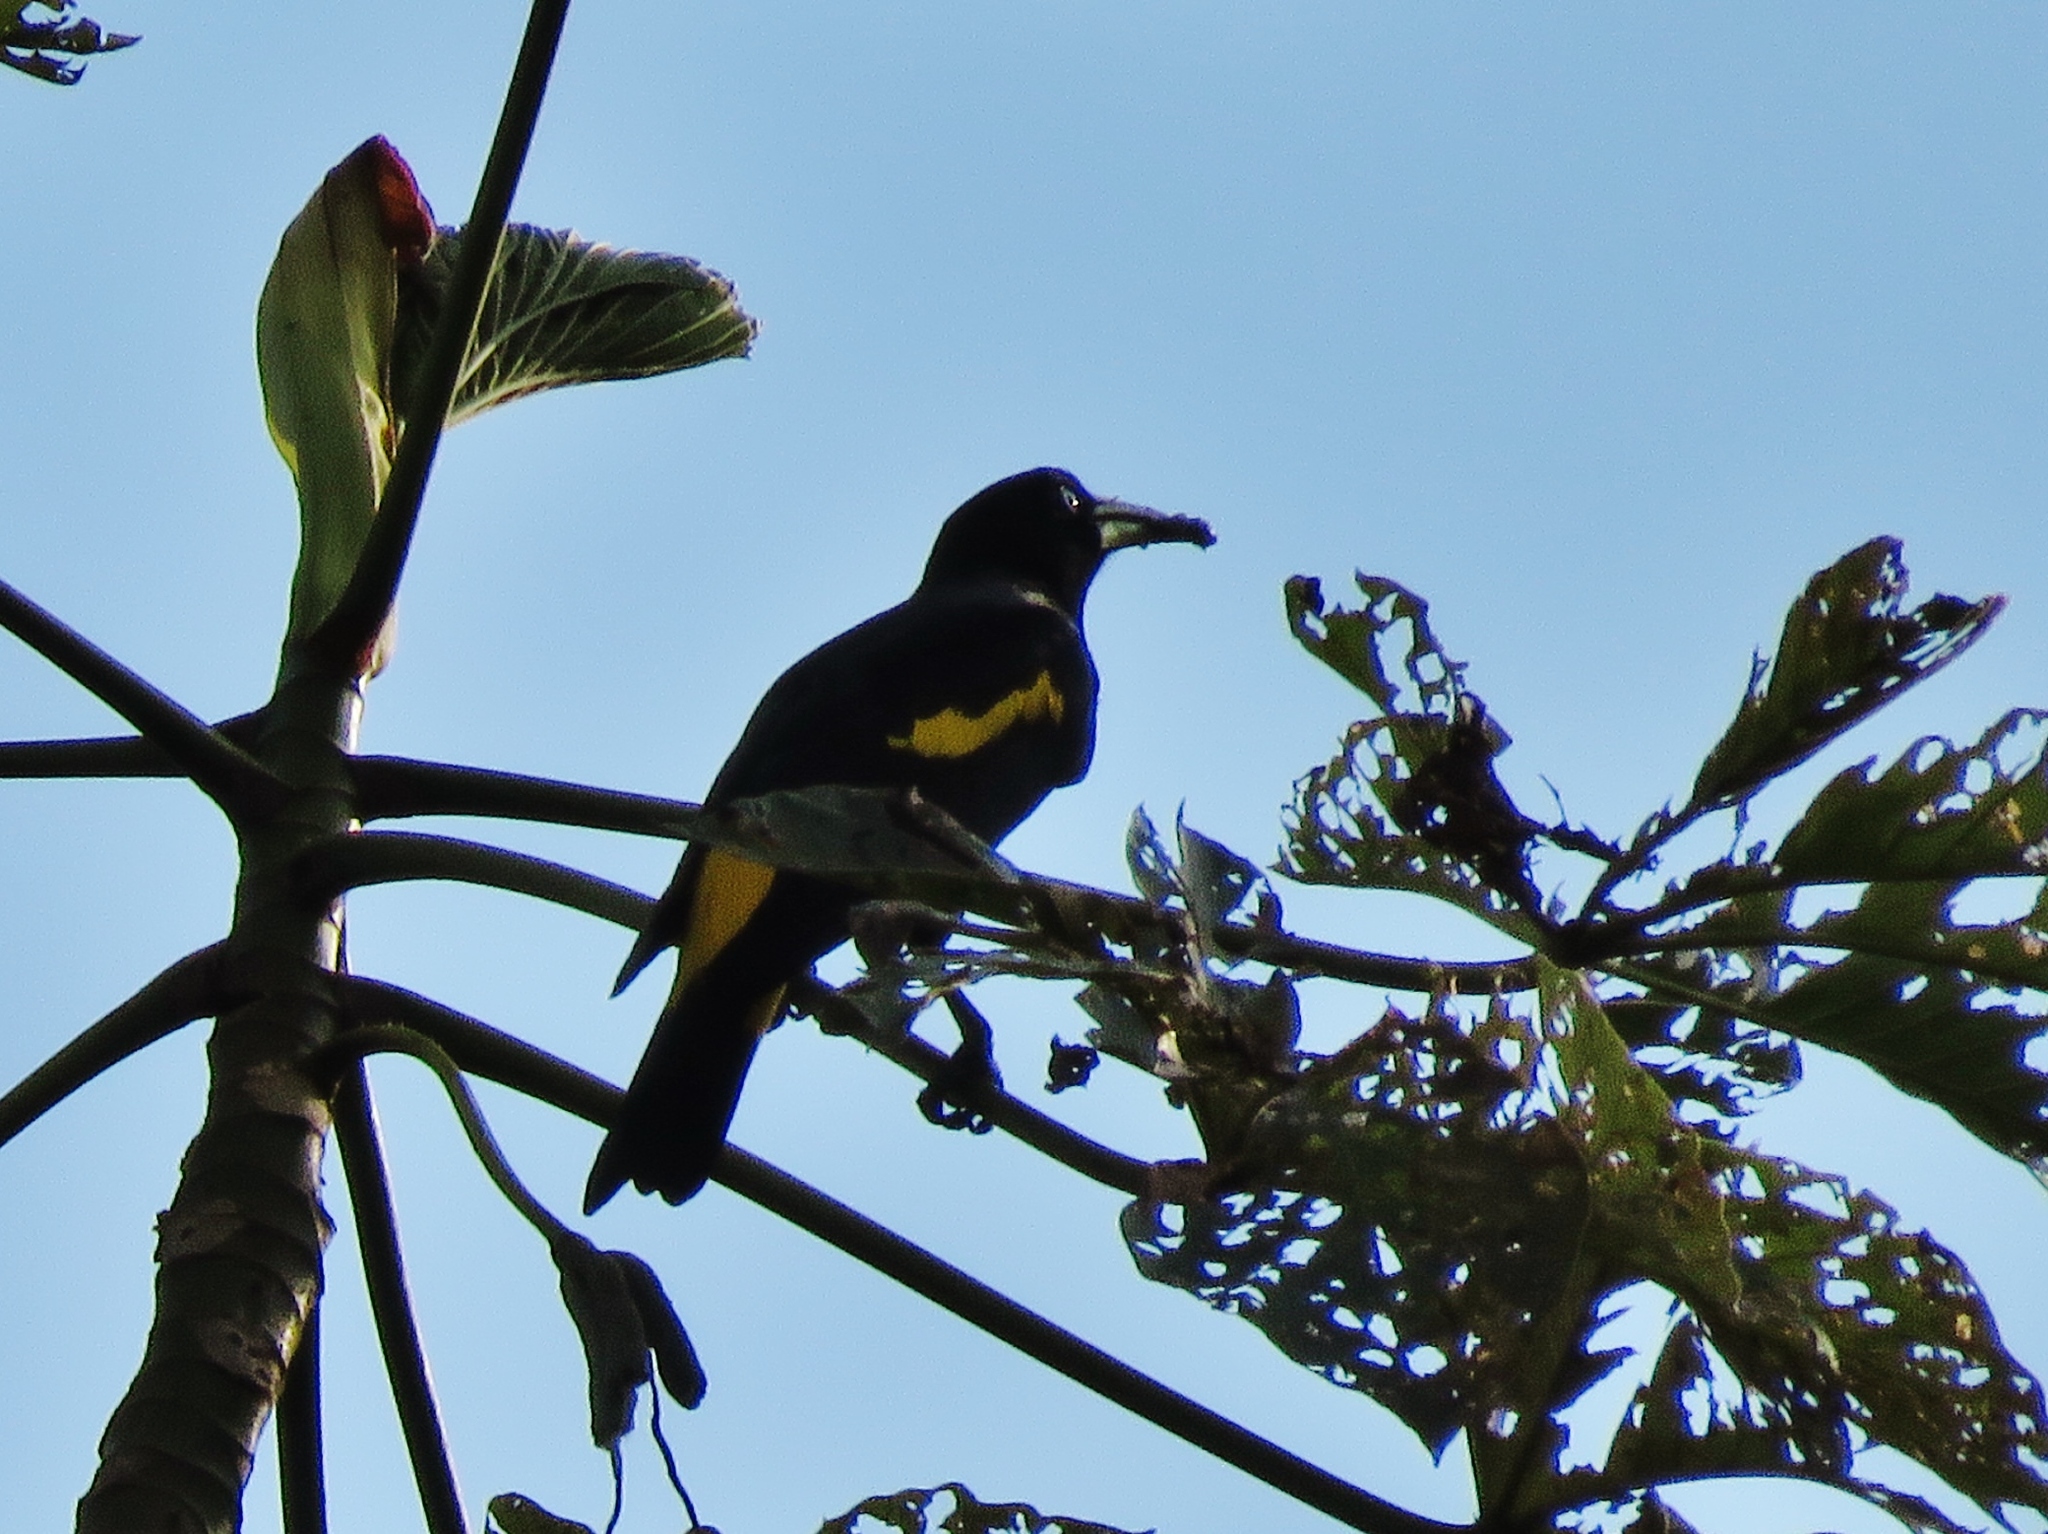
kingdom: Animalia
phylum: Chordata
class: Aves
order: Passeriformes
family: Icteridae
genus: Cacicus
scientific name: Cacicus cela
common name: Yellow-rumped cacique
